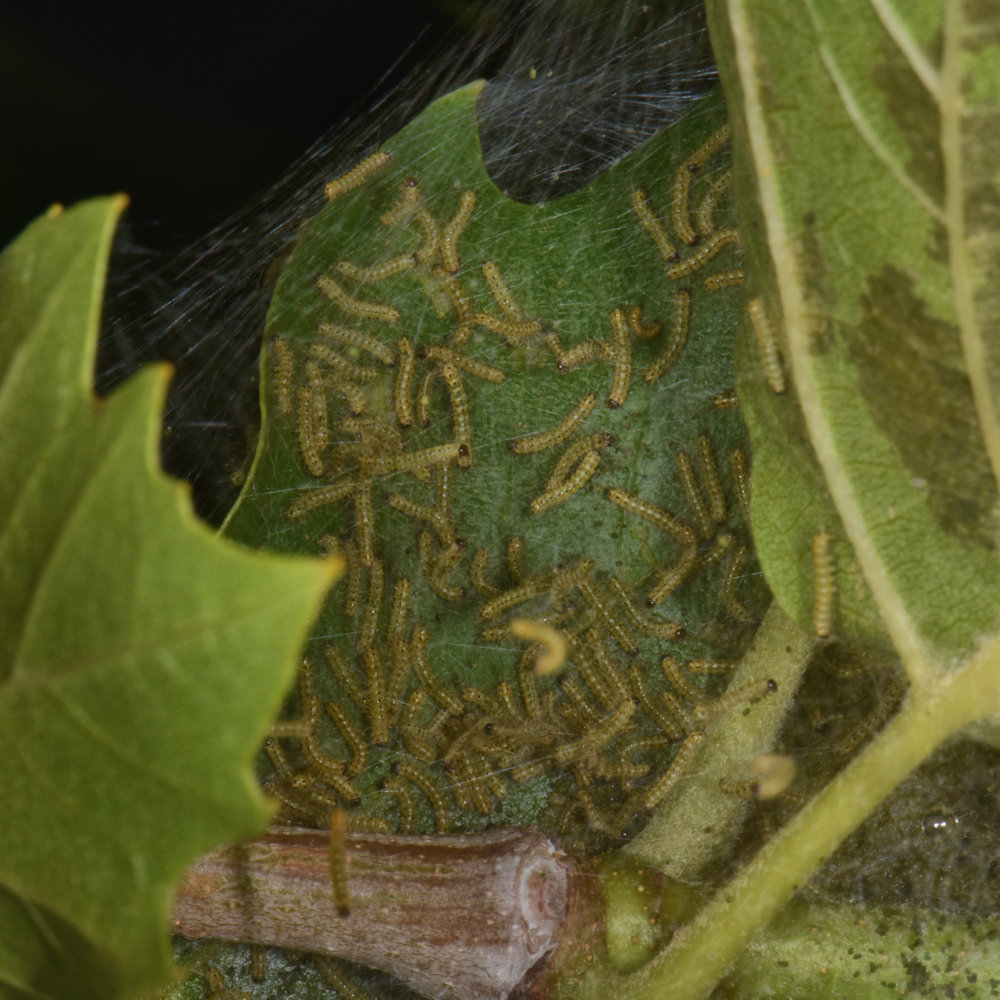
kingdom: Animalia
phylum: Arthropoda
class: Insecta
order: Lepidoptera
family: Erebidae
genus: Hyphantria
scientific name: Hyphantria cunea
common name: American white moth
